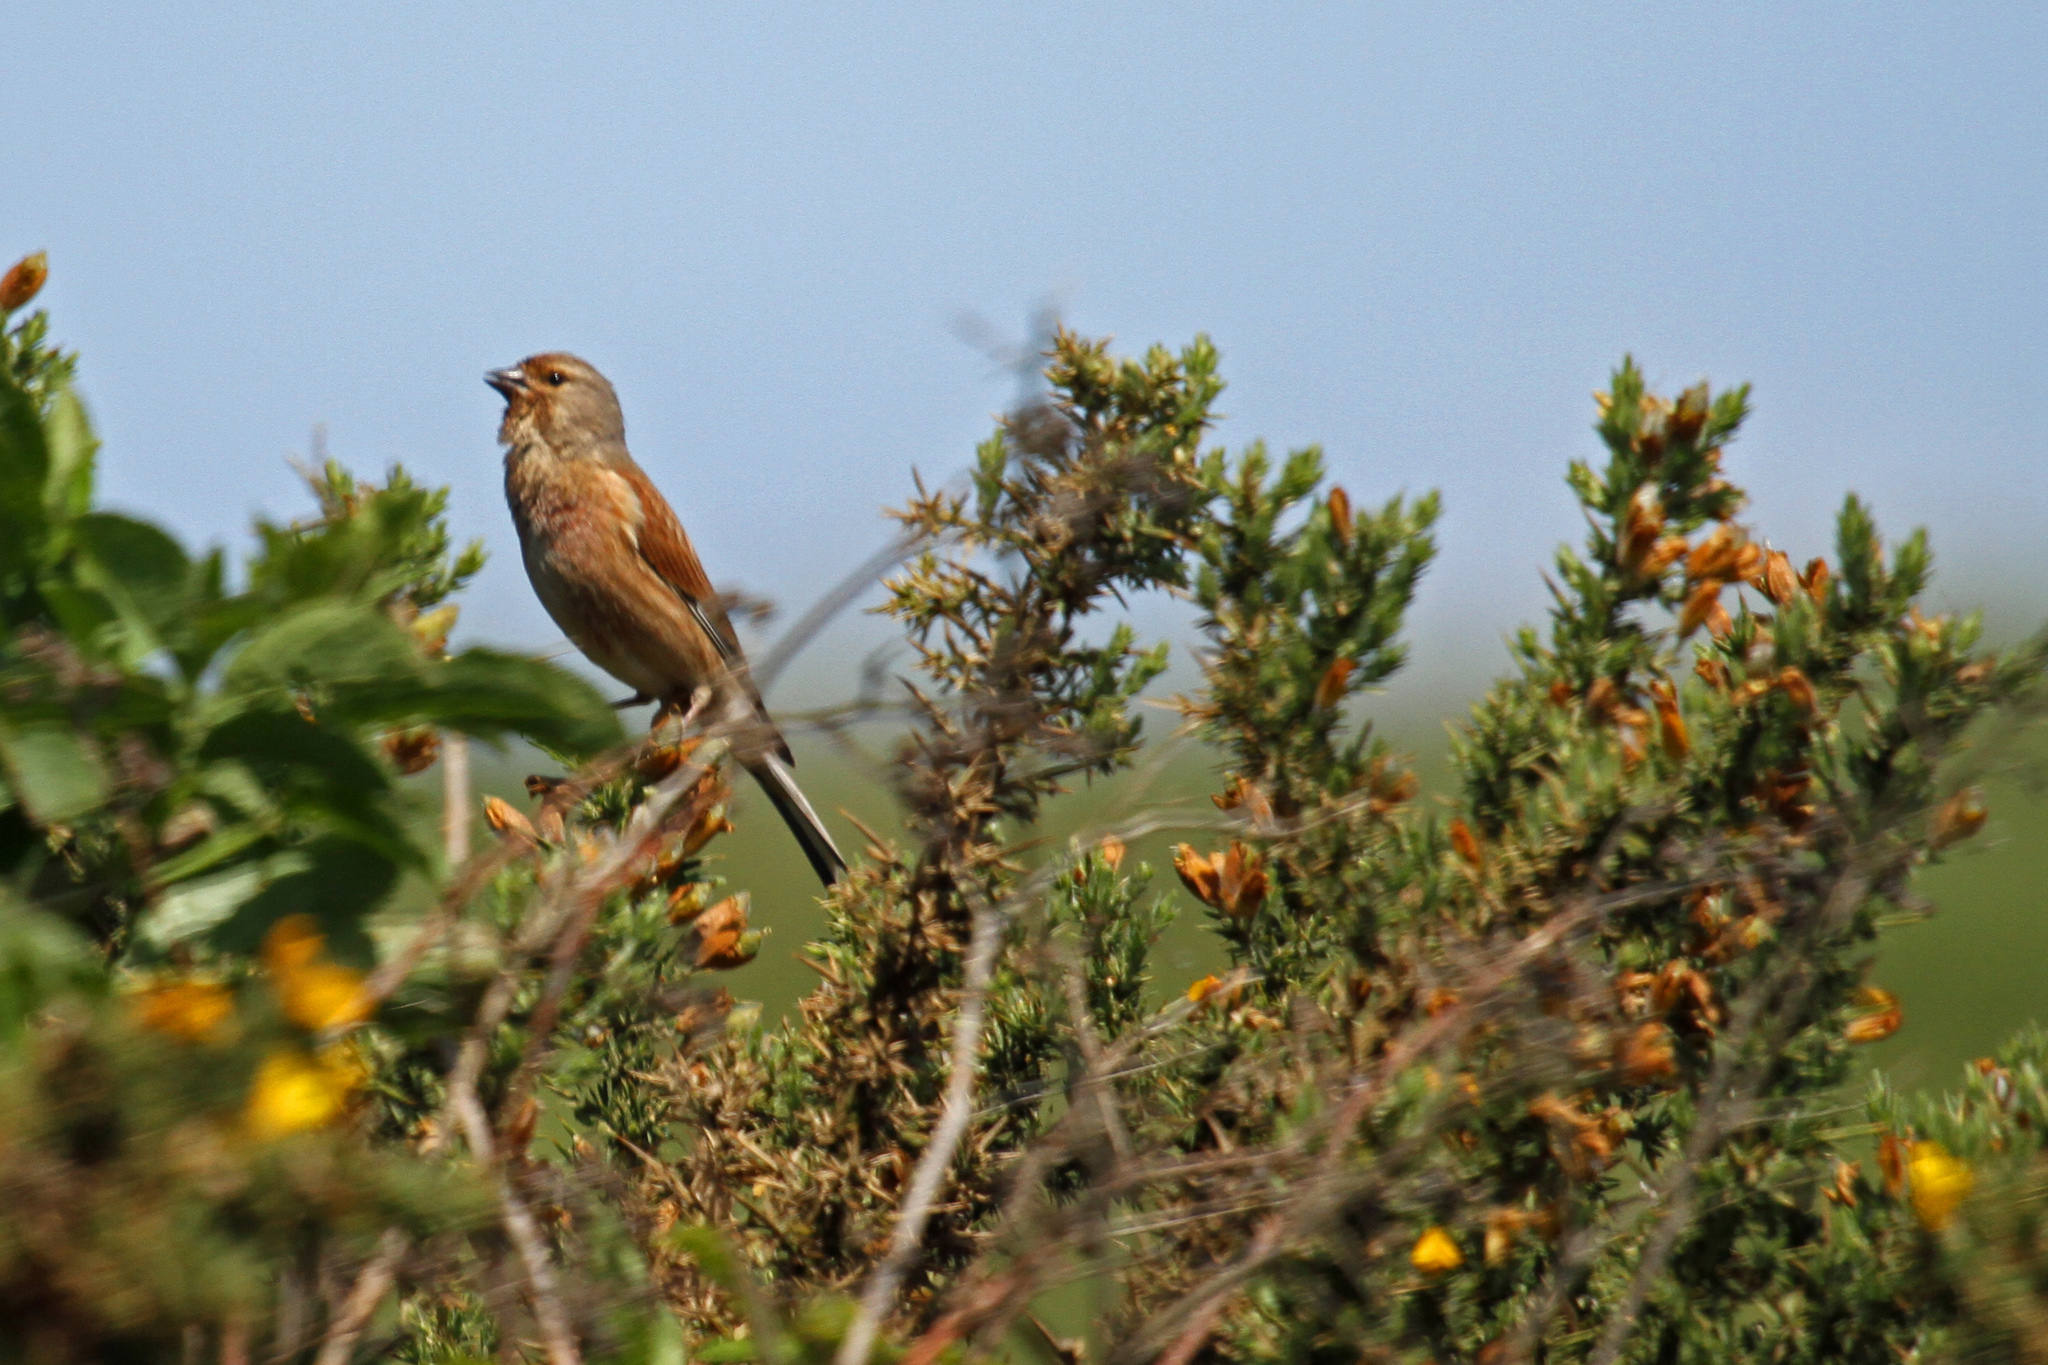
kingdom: Animalia
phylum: Chordata
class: Aves
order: Passeriformes
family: Fringillidae
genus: Linaria
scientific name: Linaria cannabina
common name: Common linnet
